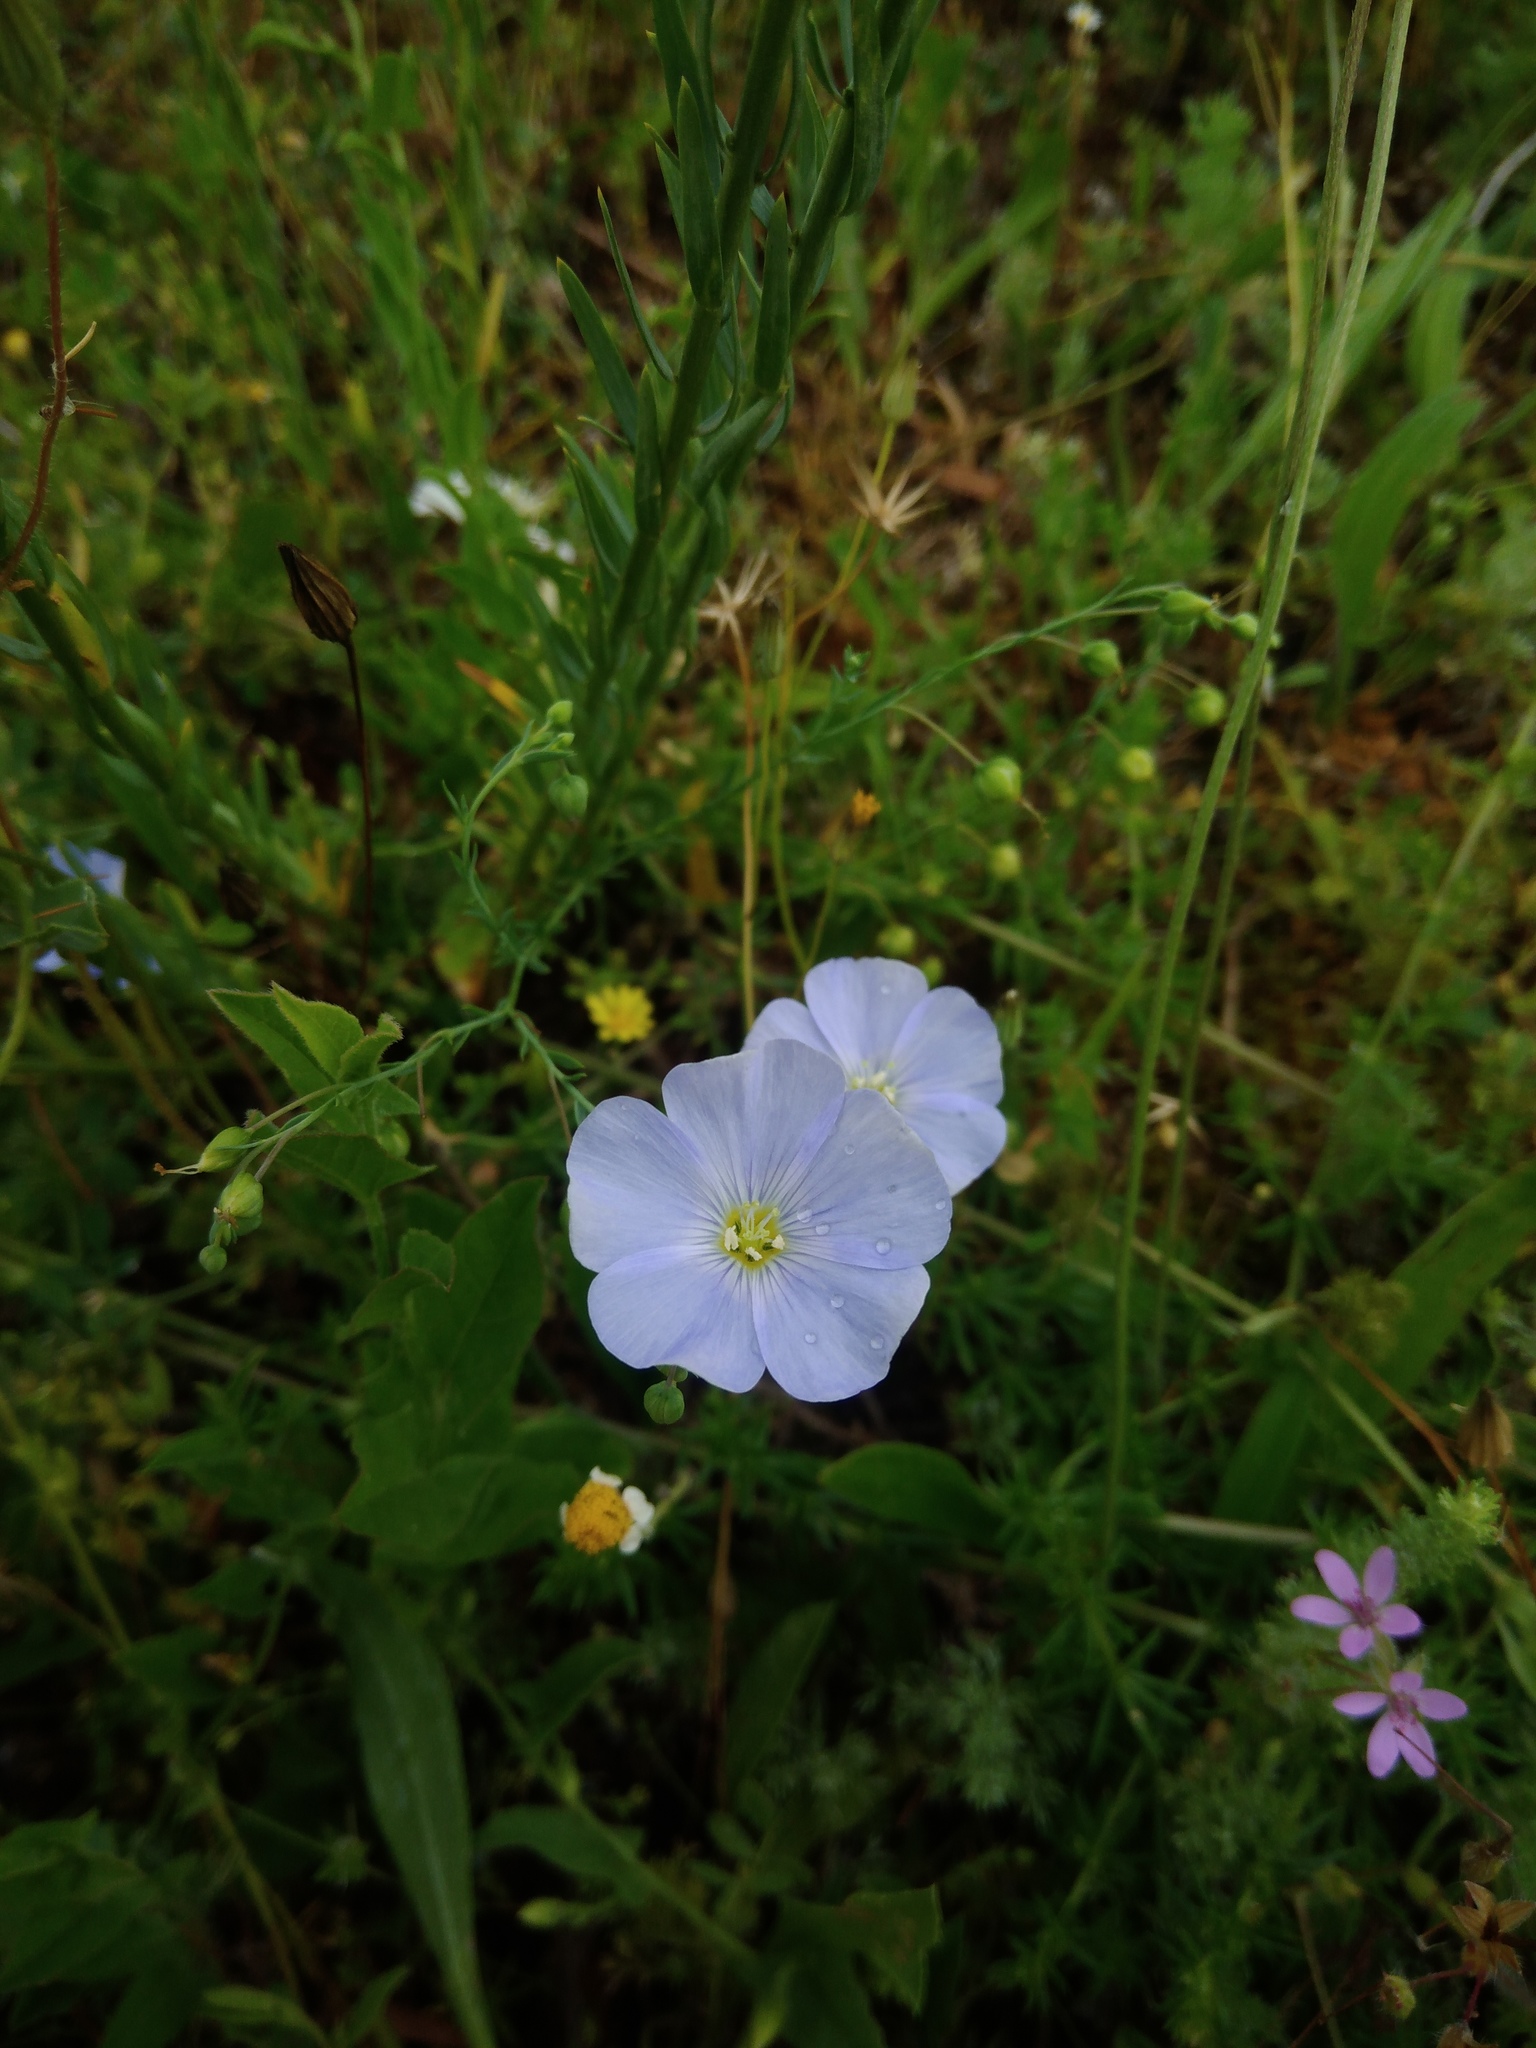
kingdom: Plantae
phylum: Tracheophyta
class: Magnoliopsida
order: Malpighiales
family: Linaceae
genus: Linum
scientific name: Linum austriacum
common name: Austrian flax
